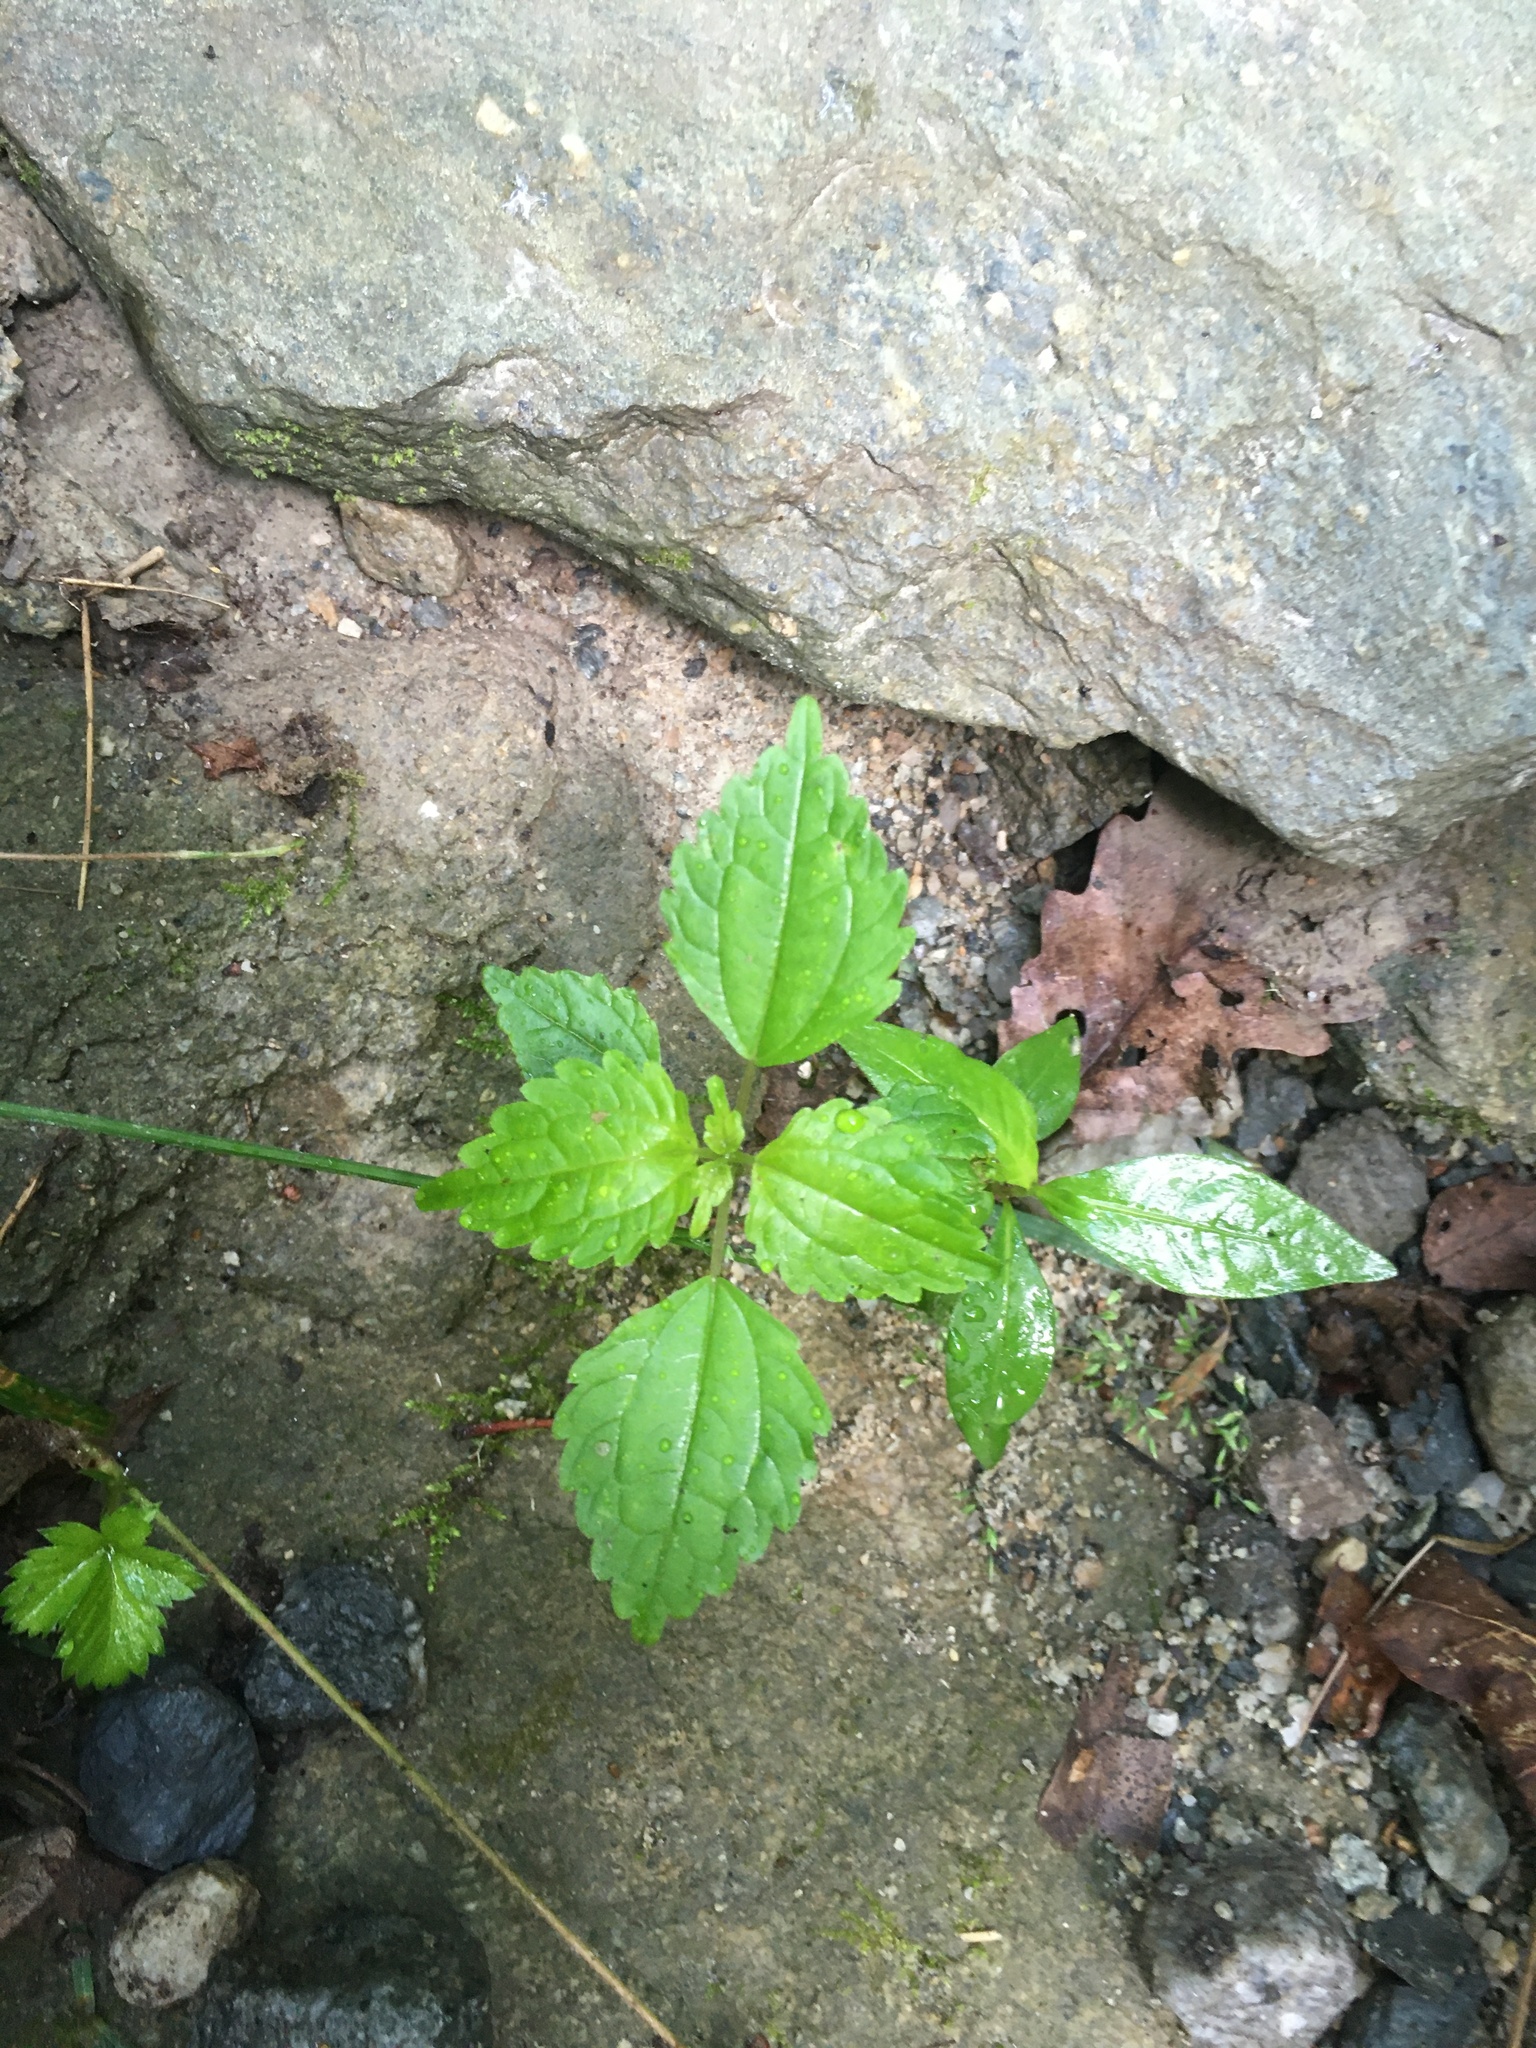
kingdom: Plantae
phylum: Tracheophyta
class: Magnoliopsida
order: Rosales
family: Urticaceae
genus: Pilea
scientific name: Pilea pumila
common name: Clearweed
